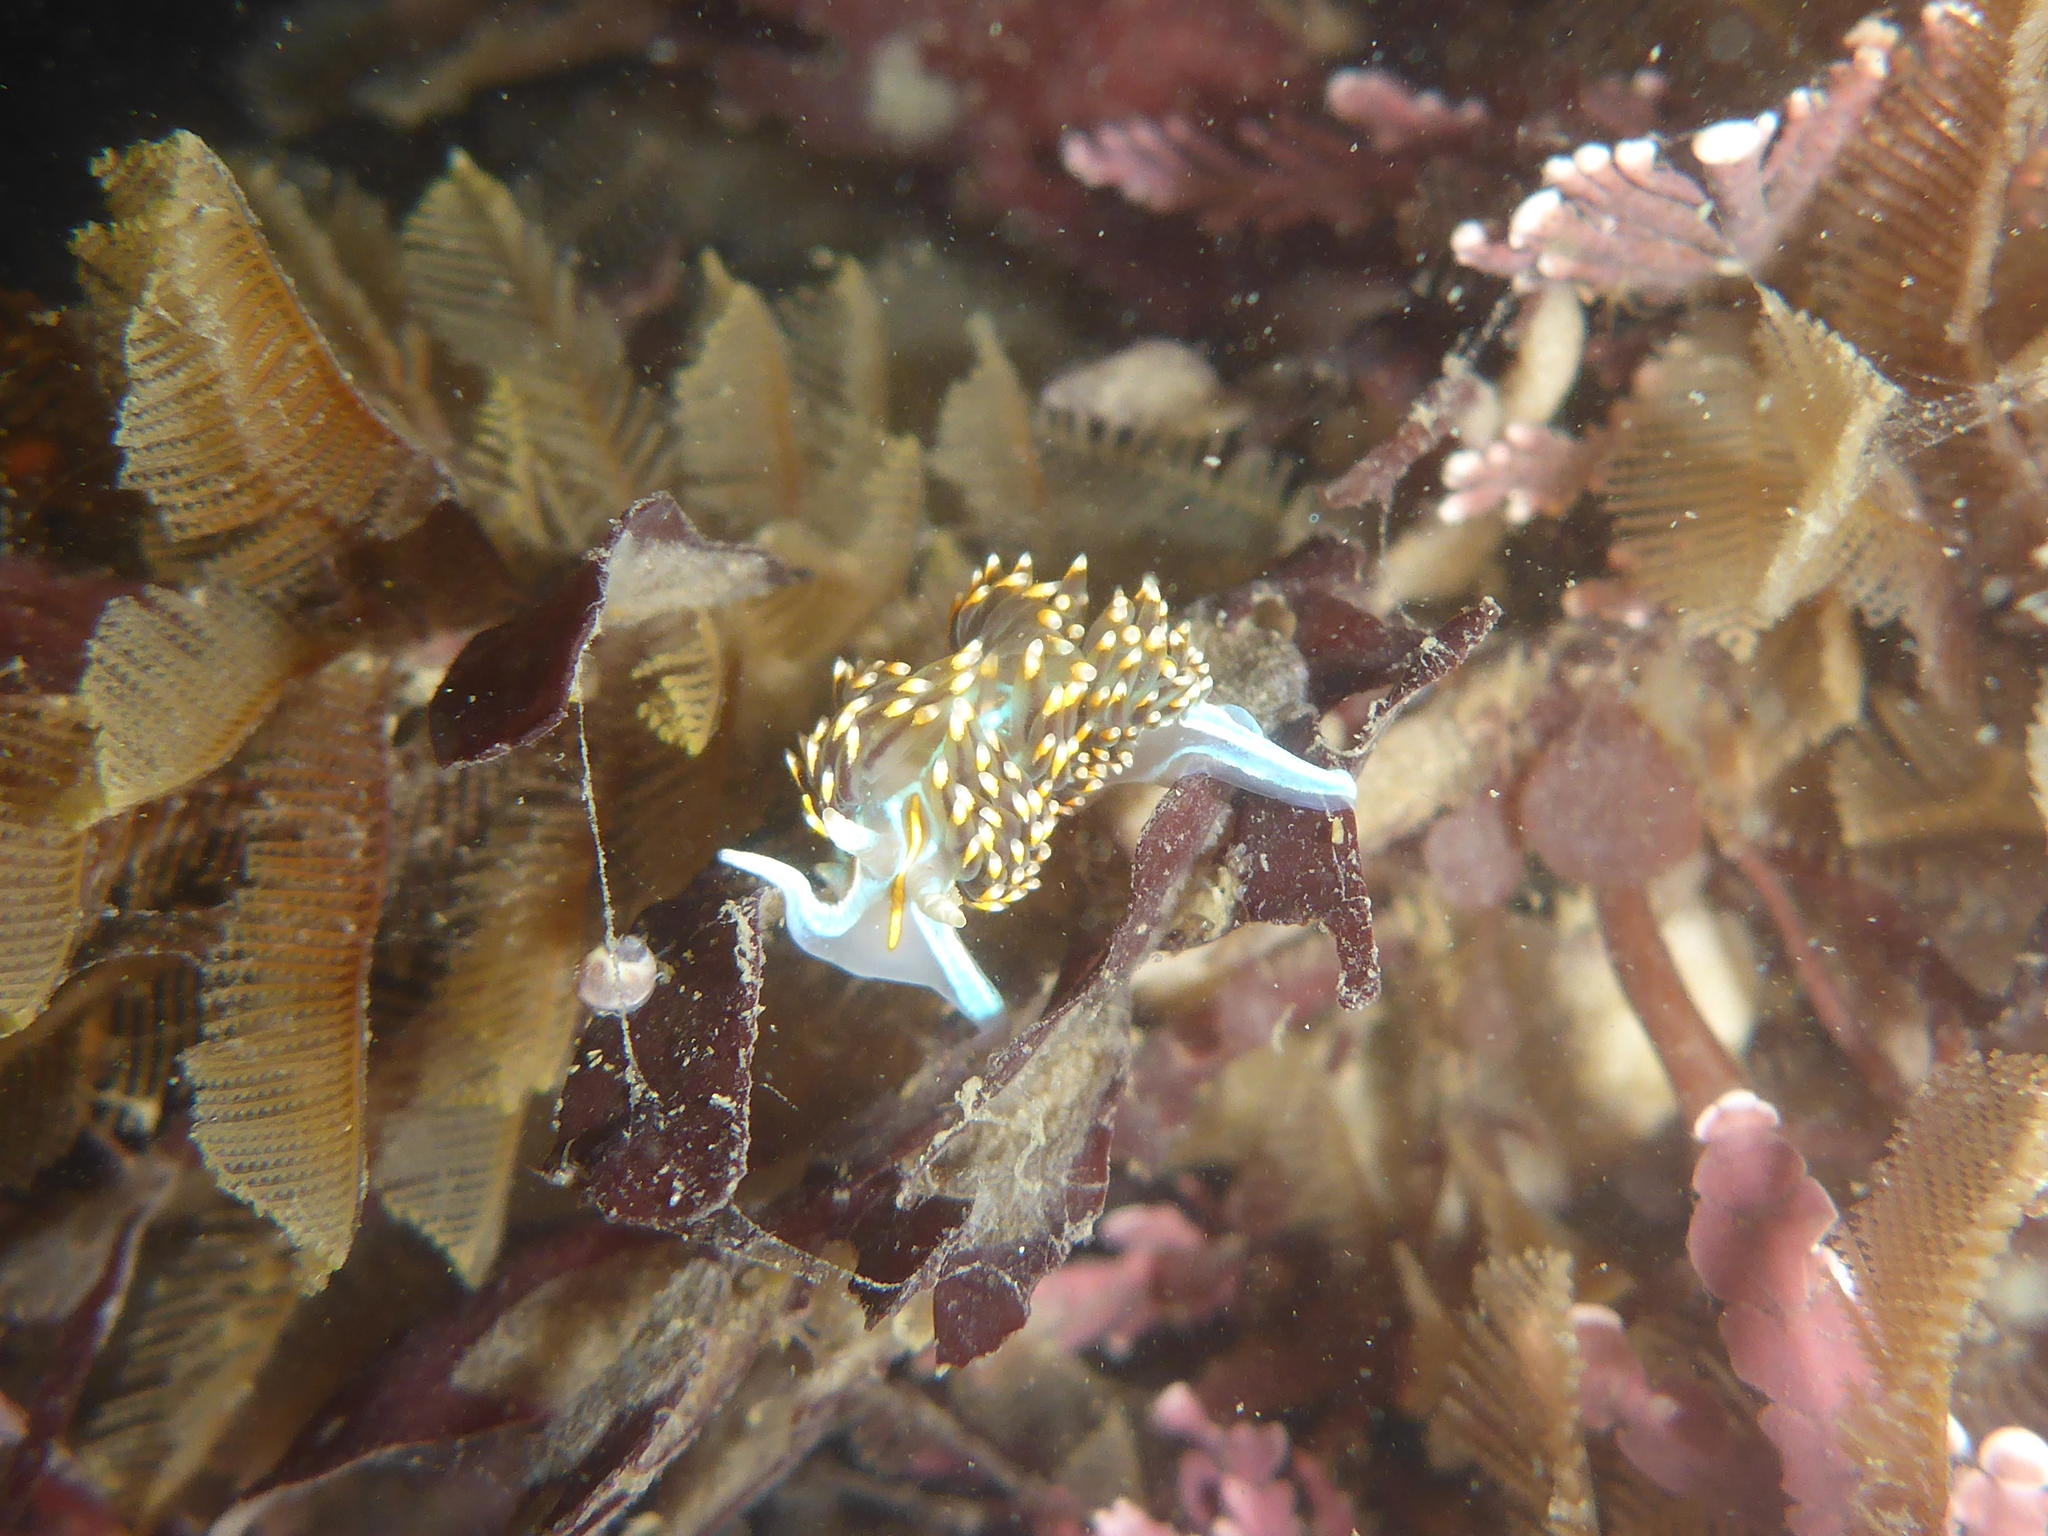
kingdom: Animalia
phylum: Mollusca
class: Gastropoda
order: Nudibranchia
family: Myrrhinidae
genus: Hermissenda
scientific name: Hermissenda opalescens
